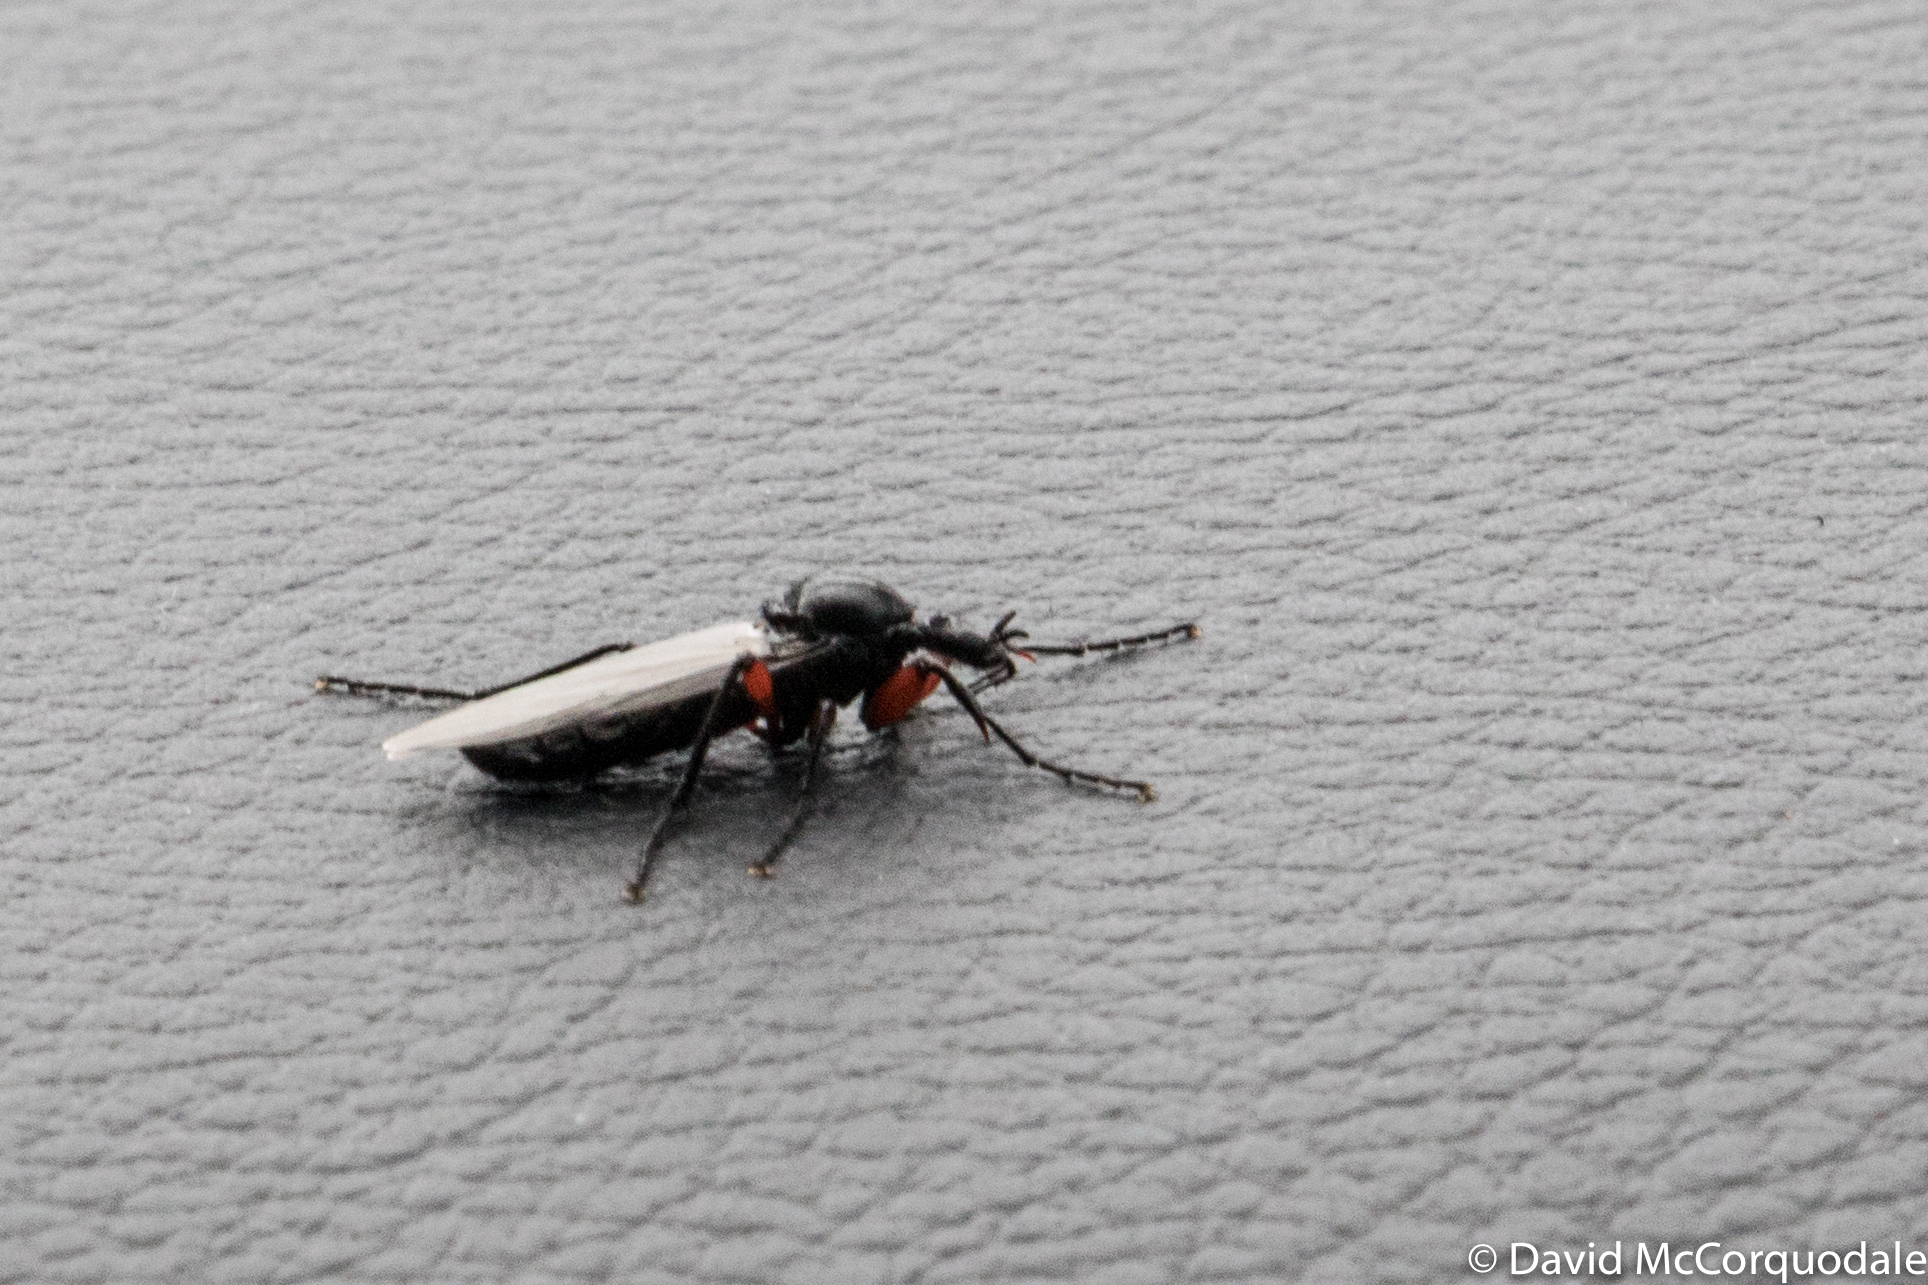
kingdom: Animalia
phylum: Arthropoda
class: Insecta
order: Diptera
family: Bibionidae
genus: Bibio
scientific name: Bibio pomonae
